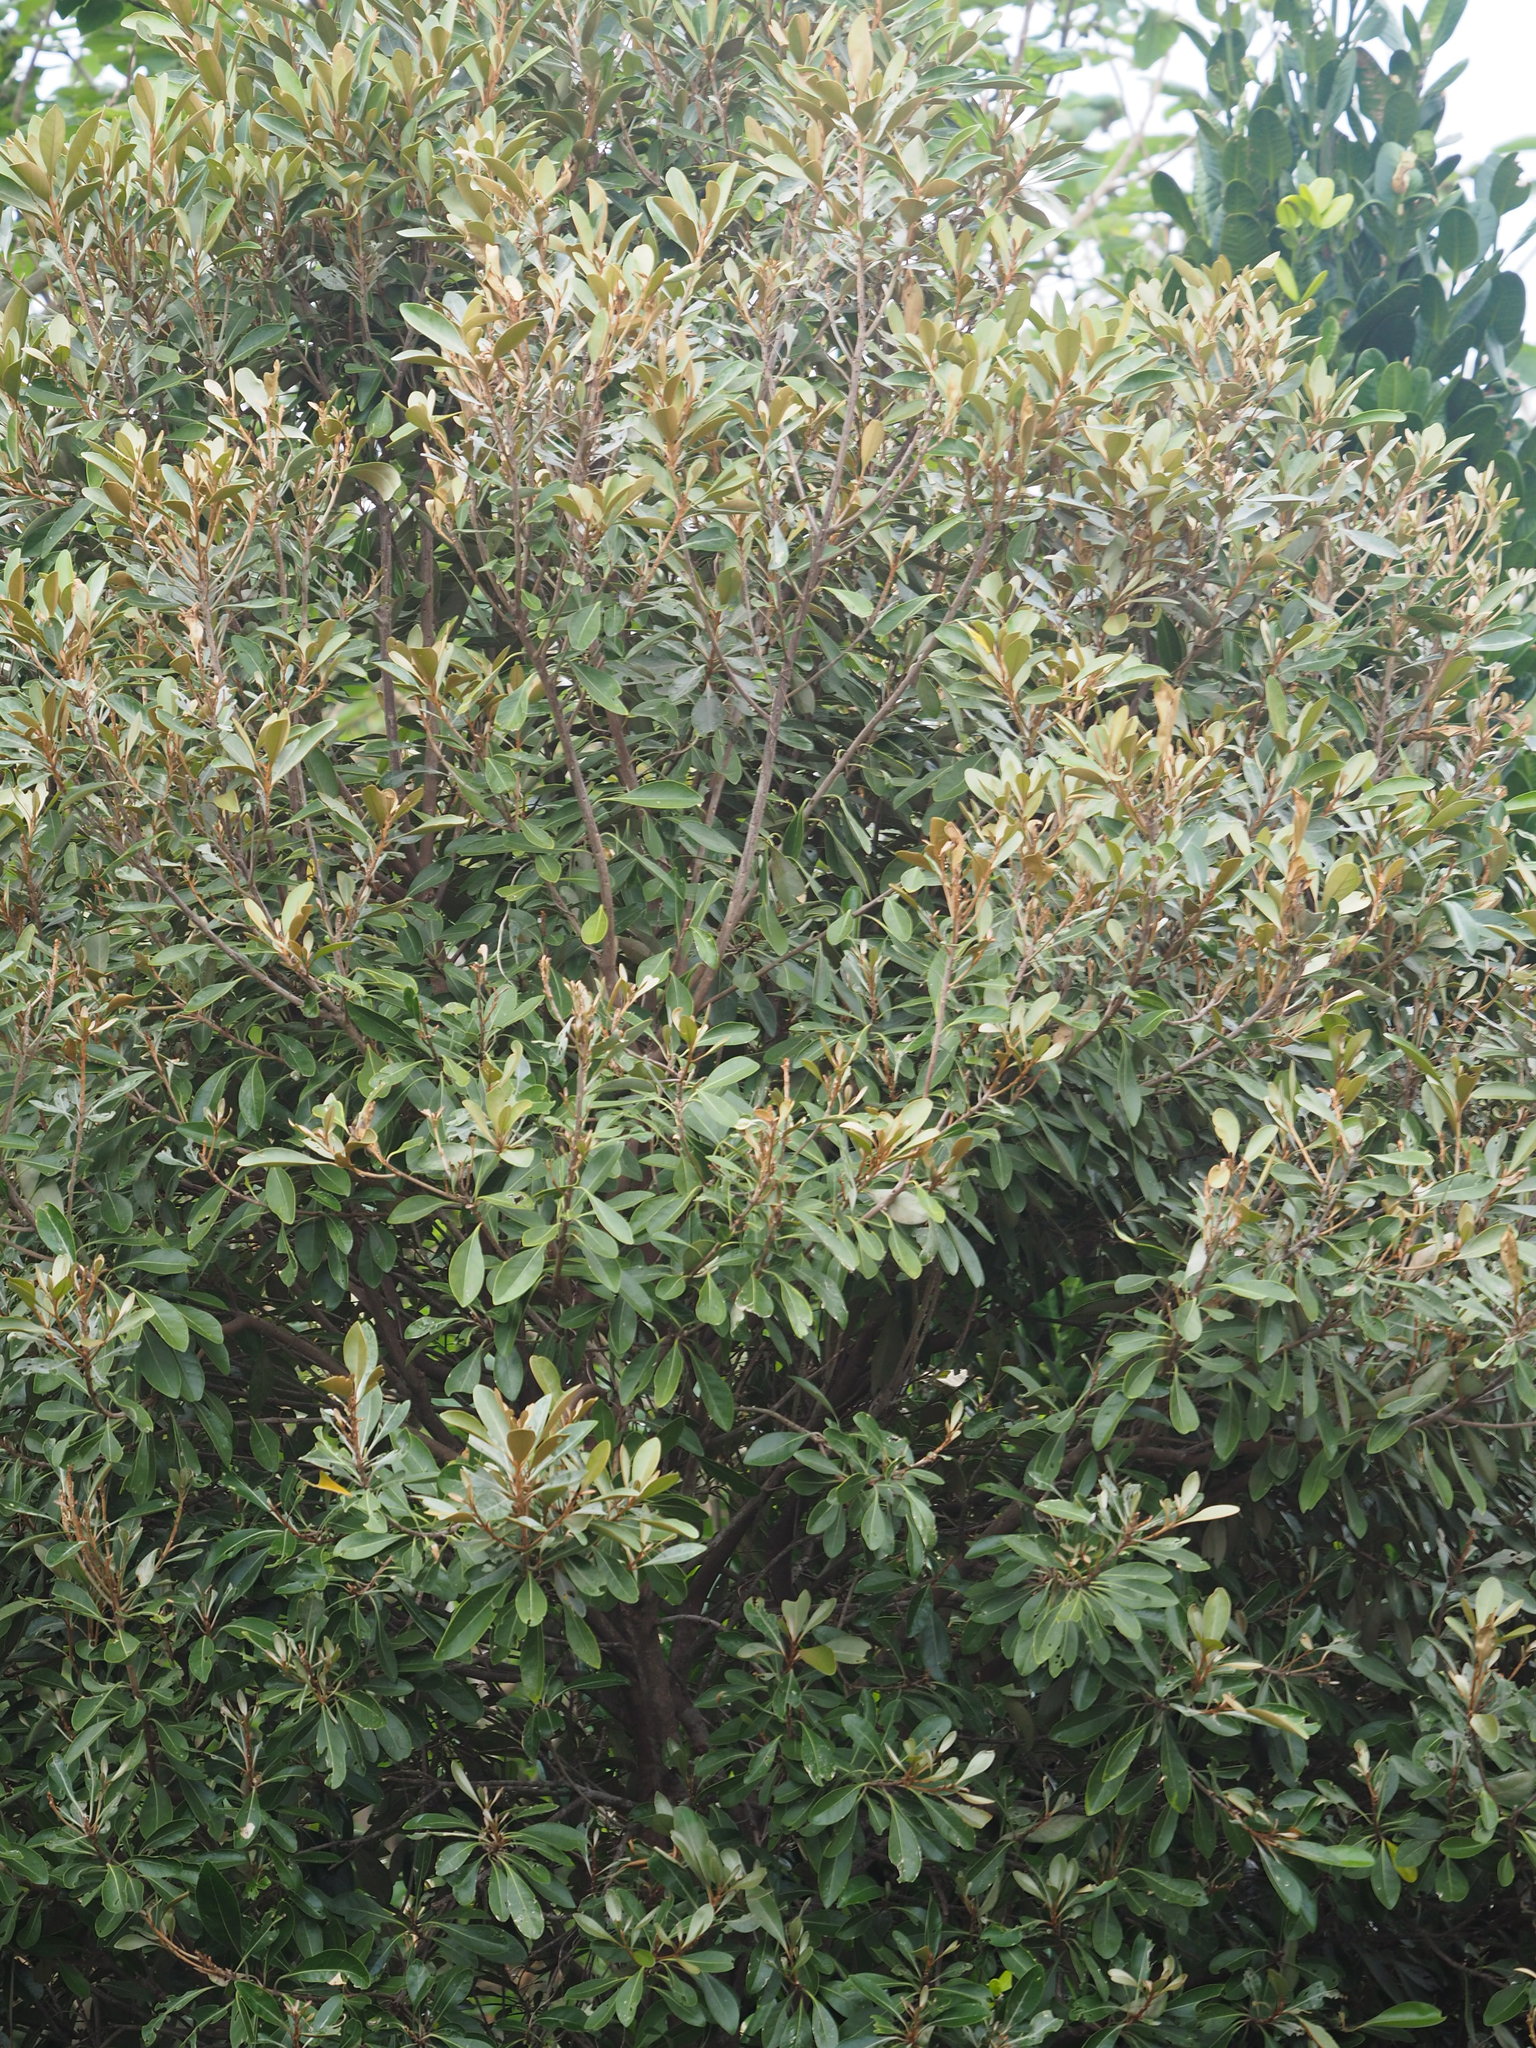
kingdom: Plantae
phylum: Tracheophyta
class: Magnoliopsida
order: Ericales
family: Sapotaceae
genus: Planchonella
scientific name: Planchonella obovata
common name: Black-ash
